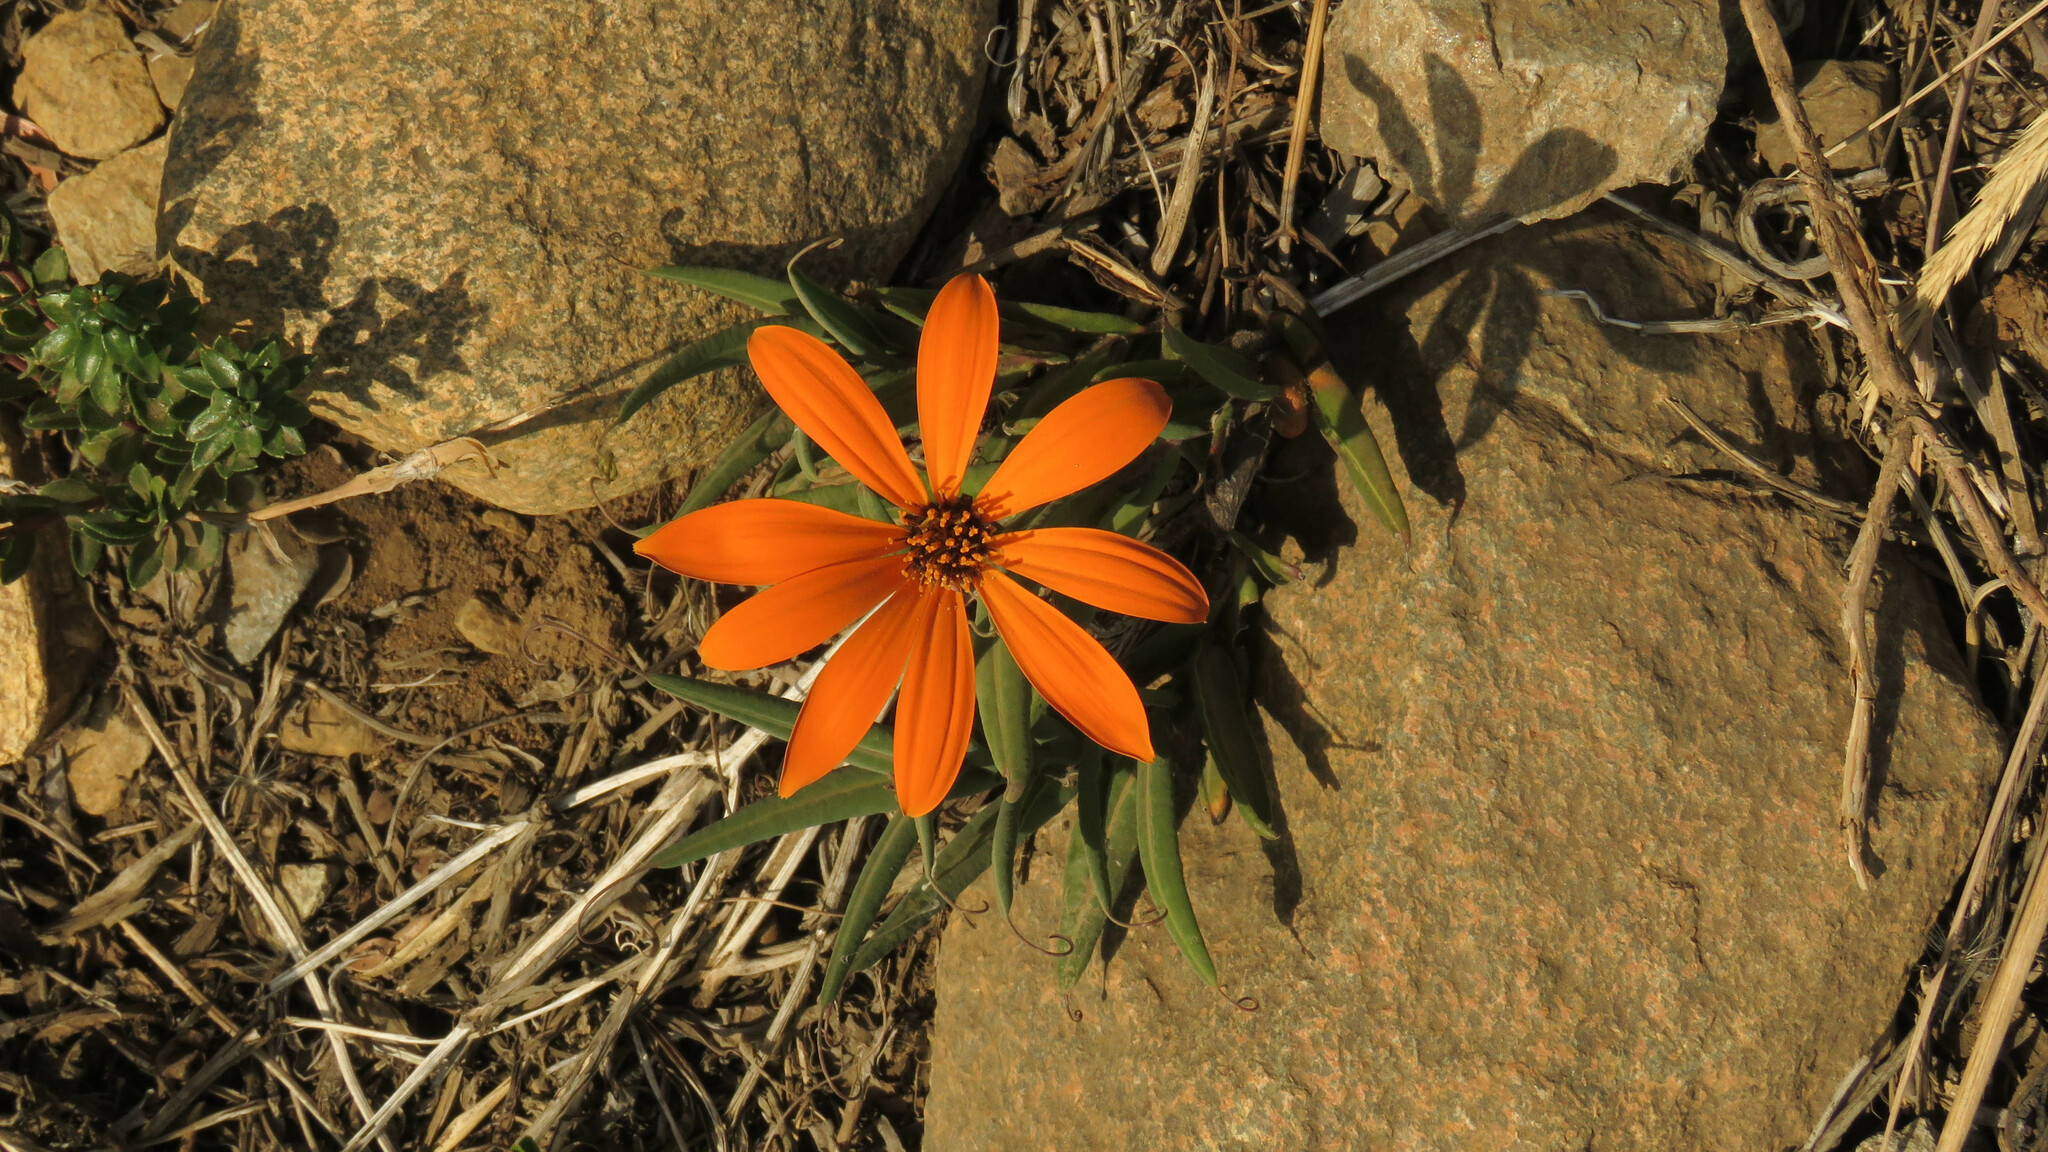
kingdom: Plantae
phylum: Tracheophyta
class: Magnoliopsida
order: Asterales
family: Asteraceae
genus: Mutisia
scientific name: Mutisia decurrens
